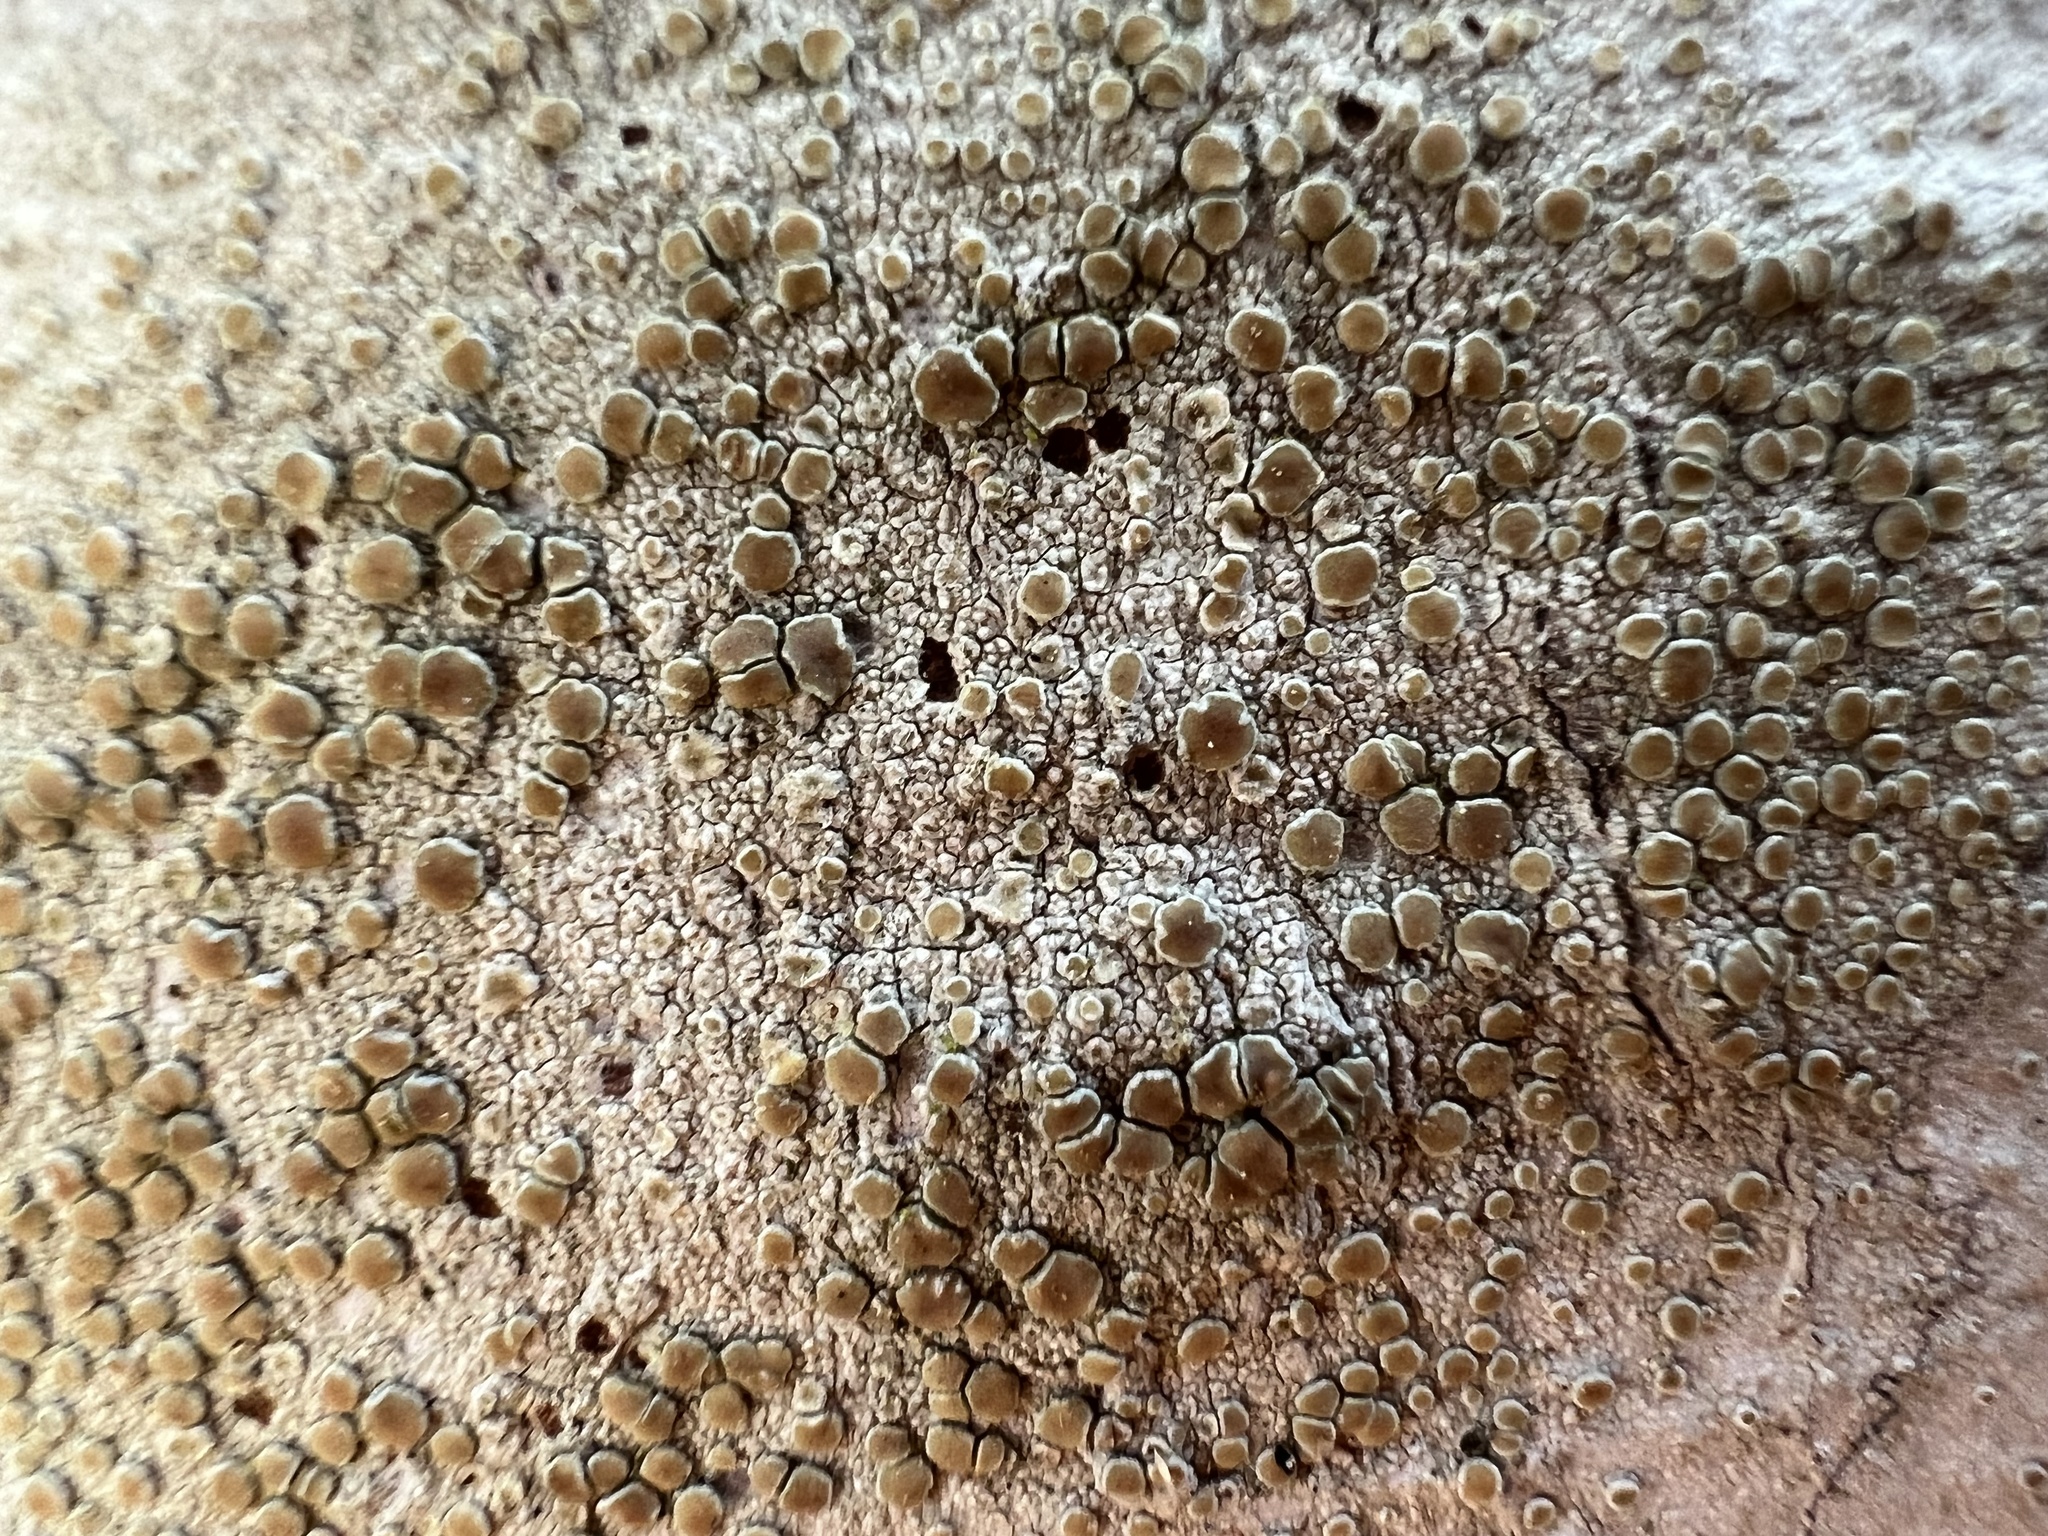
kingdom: Fungi
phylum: Ascomycota
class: Lecanoromycetes
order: Lecanorales
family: Lecanoraceae
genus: Lecanora
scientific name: Lecanora hybocarpa
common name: Bumpy rim-lichen
